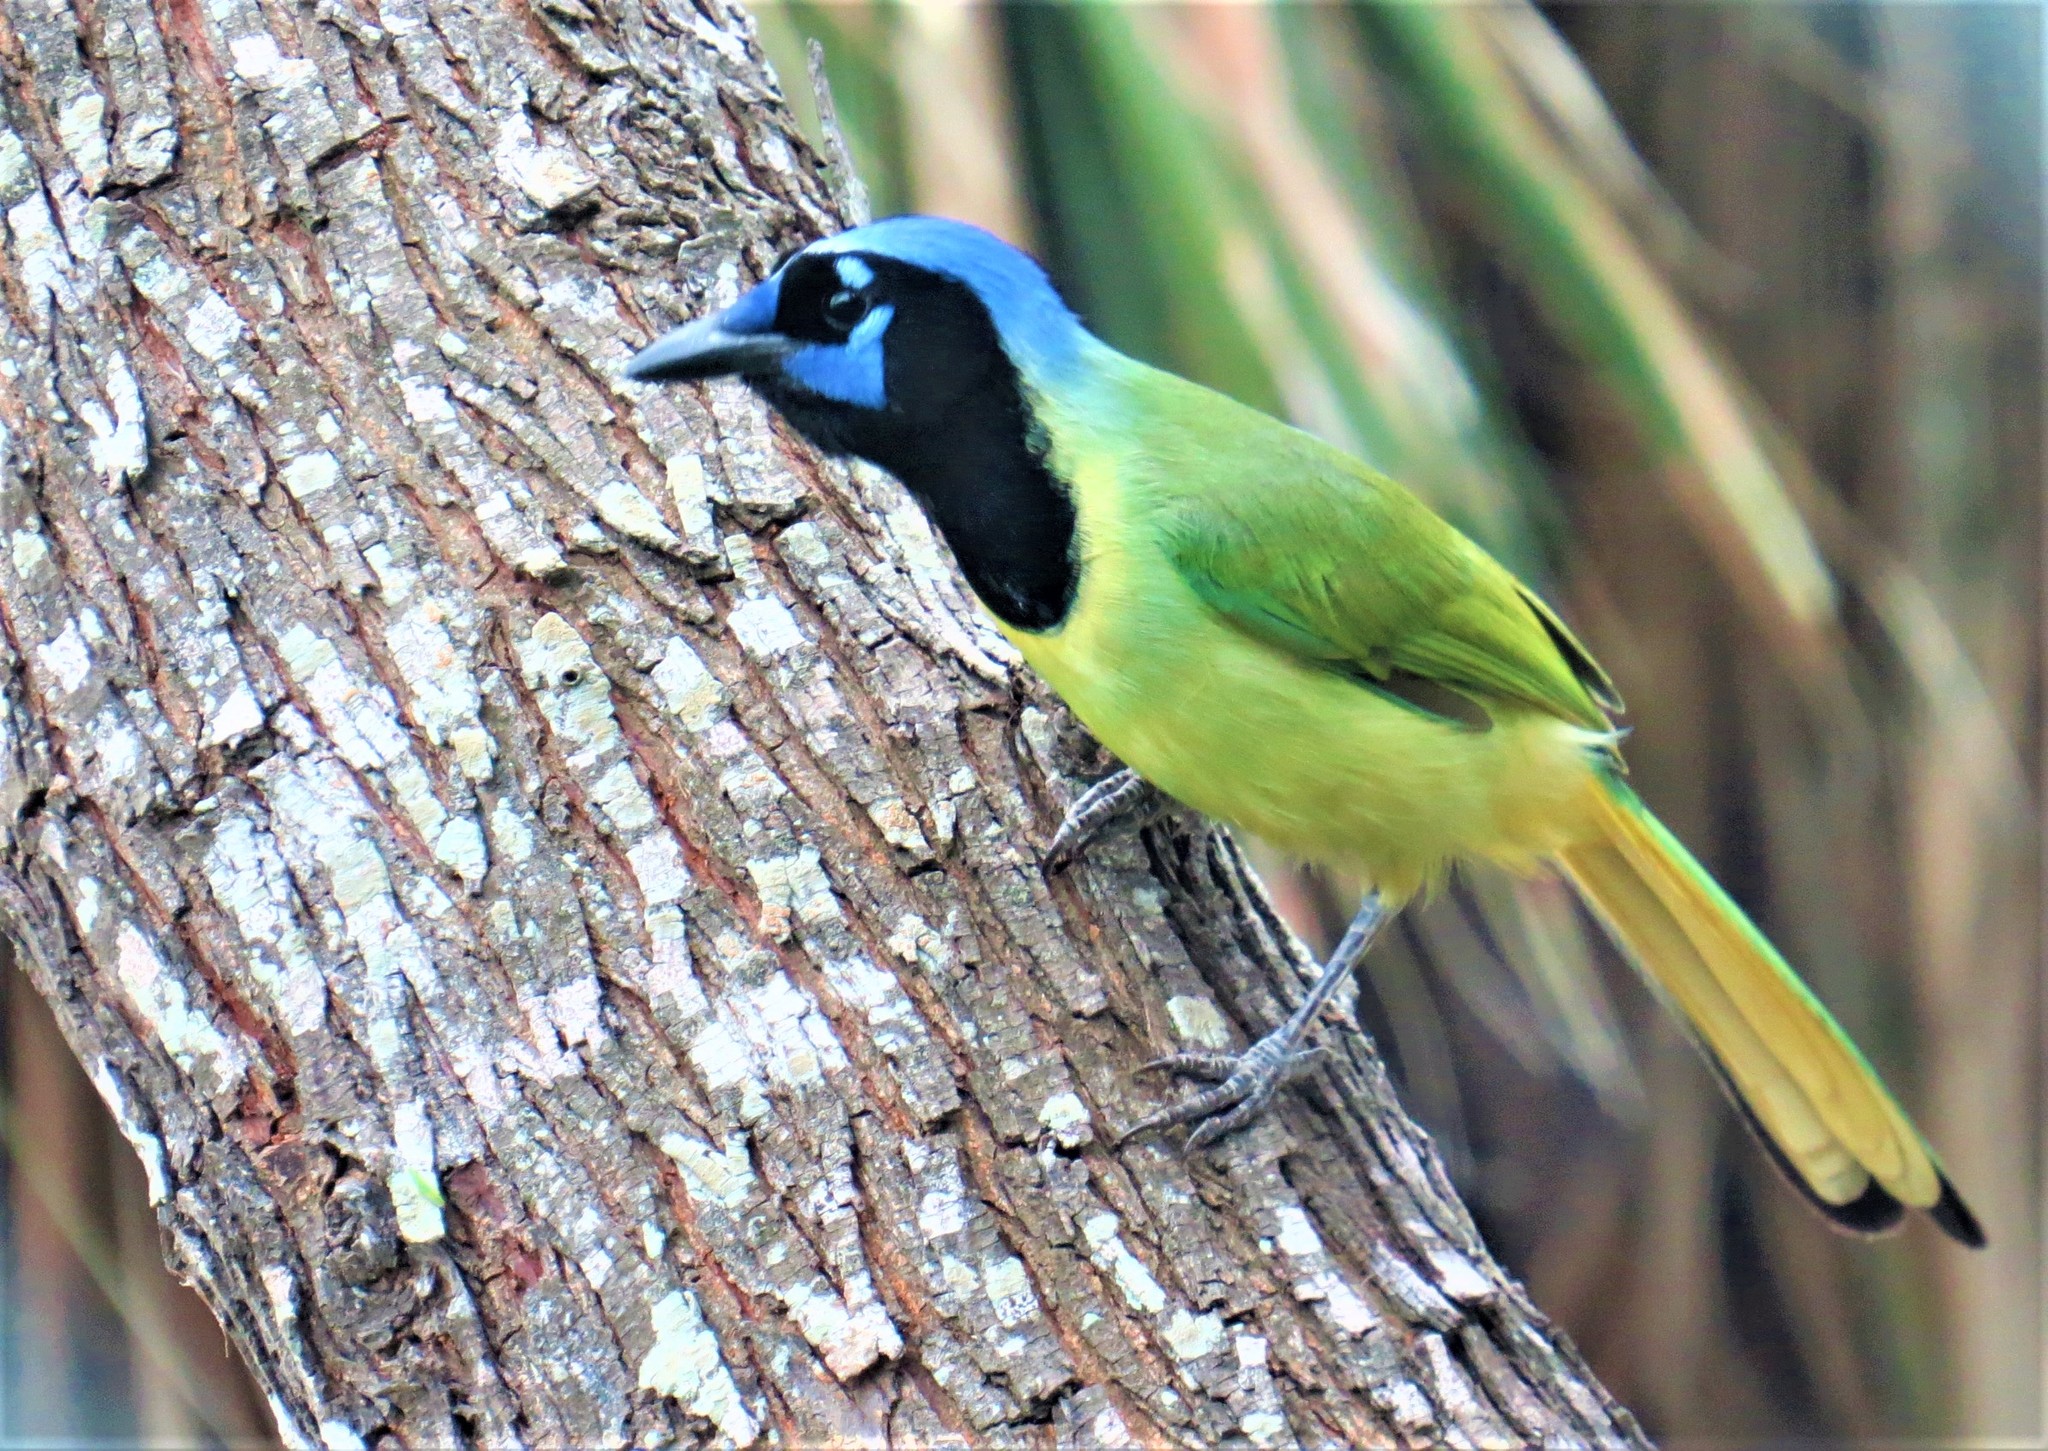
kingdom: Animalia
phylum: Chordata
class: Aves
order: Passeriformes
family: Corvidae
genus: Cyanocorax
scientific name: Cyanocorax yncas
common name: Green jay
